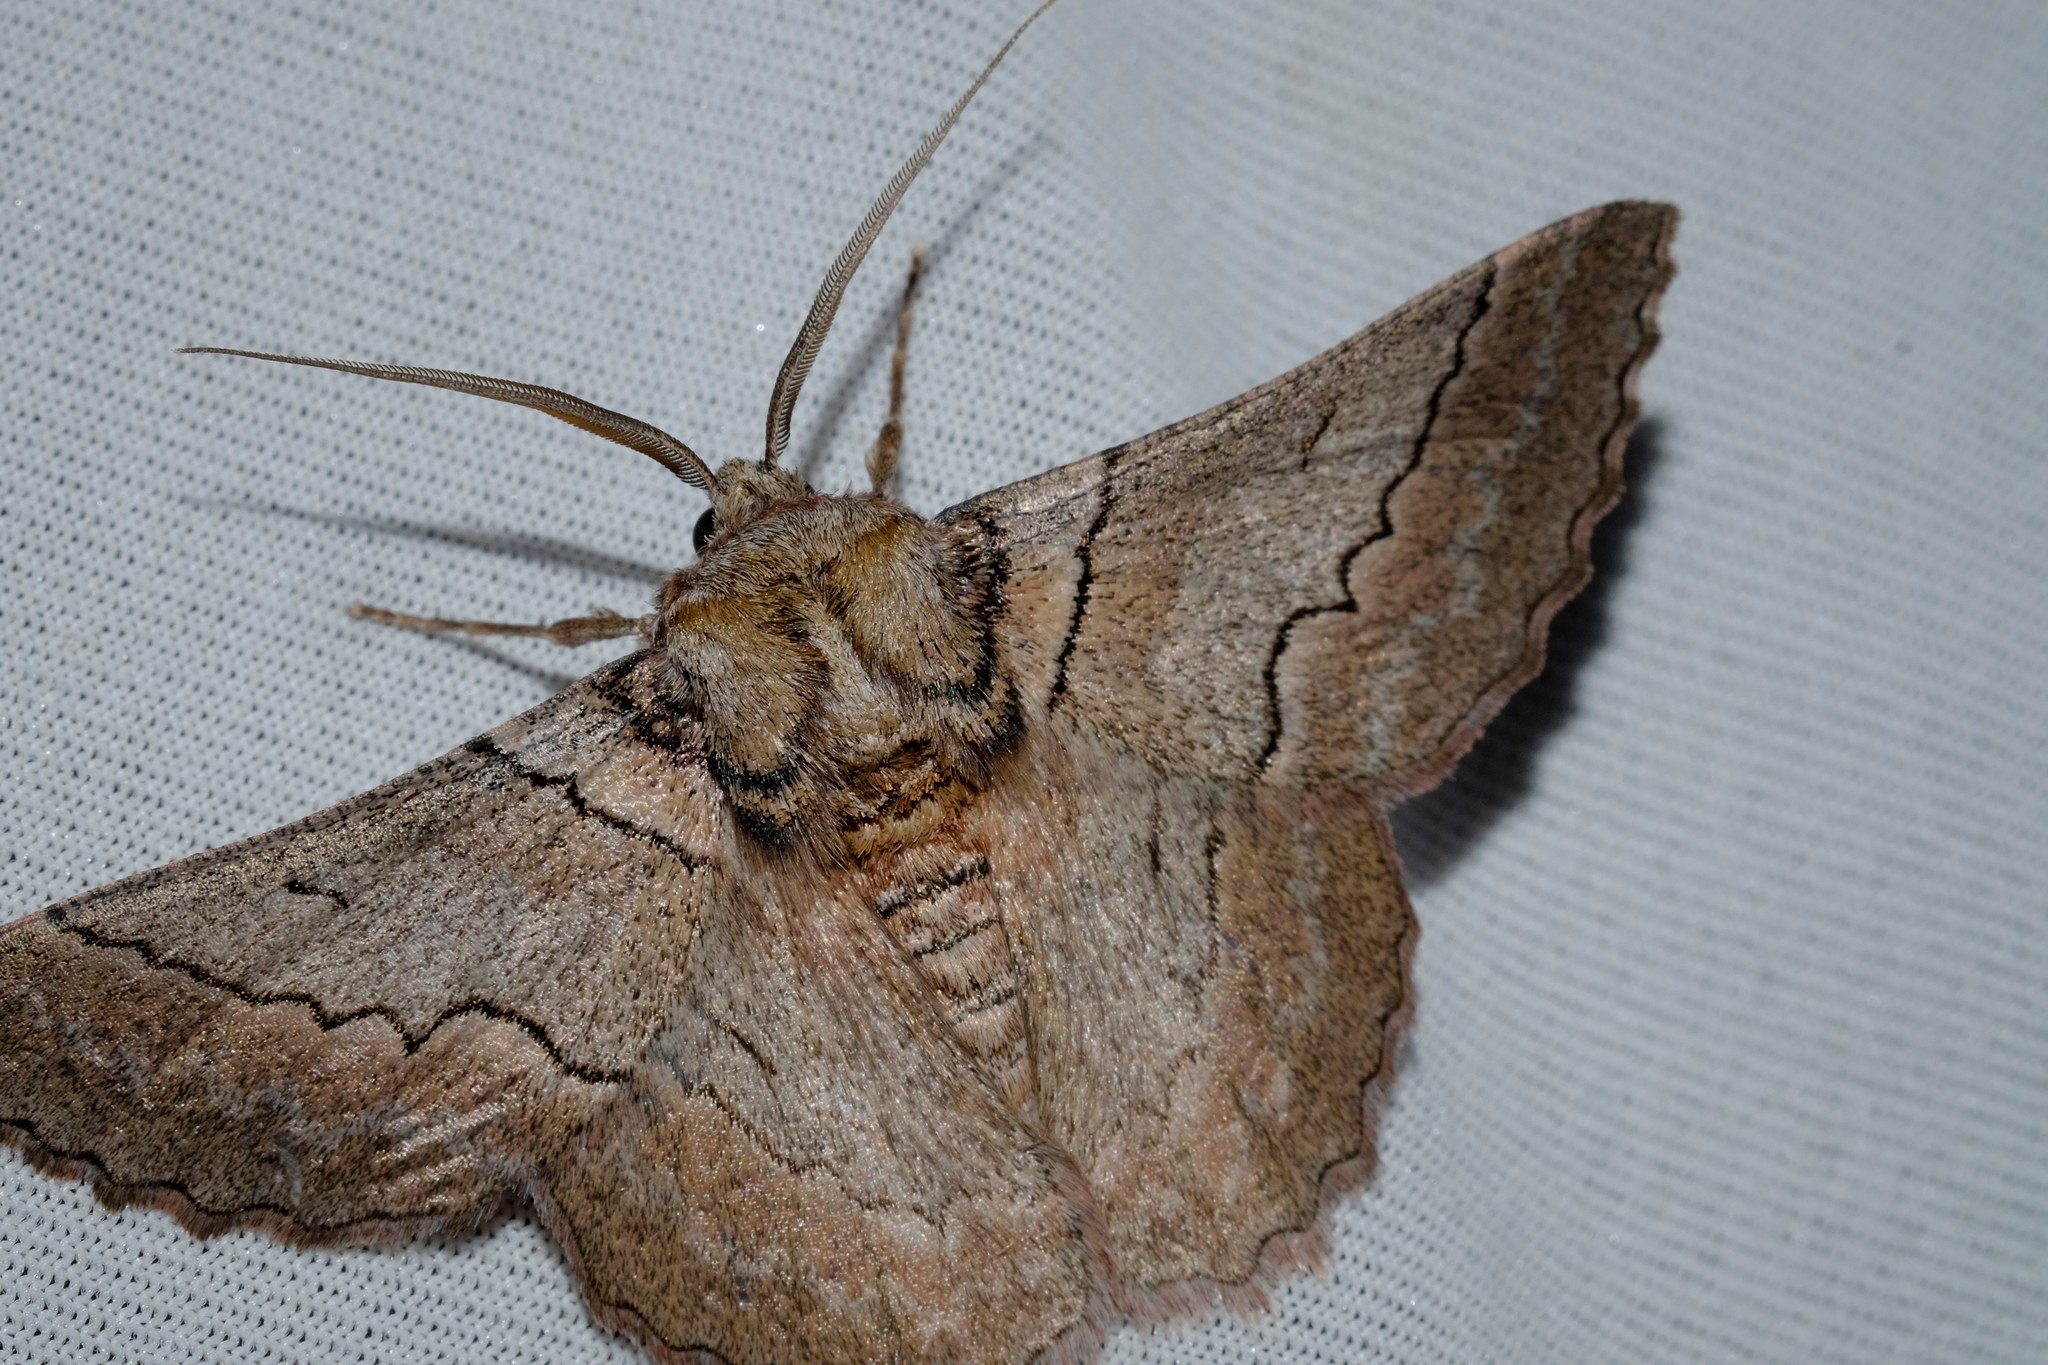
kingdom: Animalia
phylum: Arthropoda
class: Insecta
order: Lepidoptera
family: Geometridae
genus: Hypobapta
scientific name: Hypobapta tachyhalotaria
